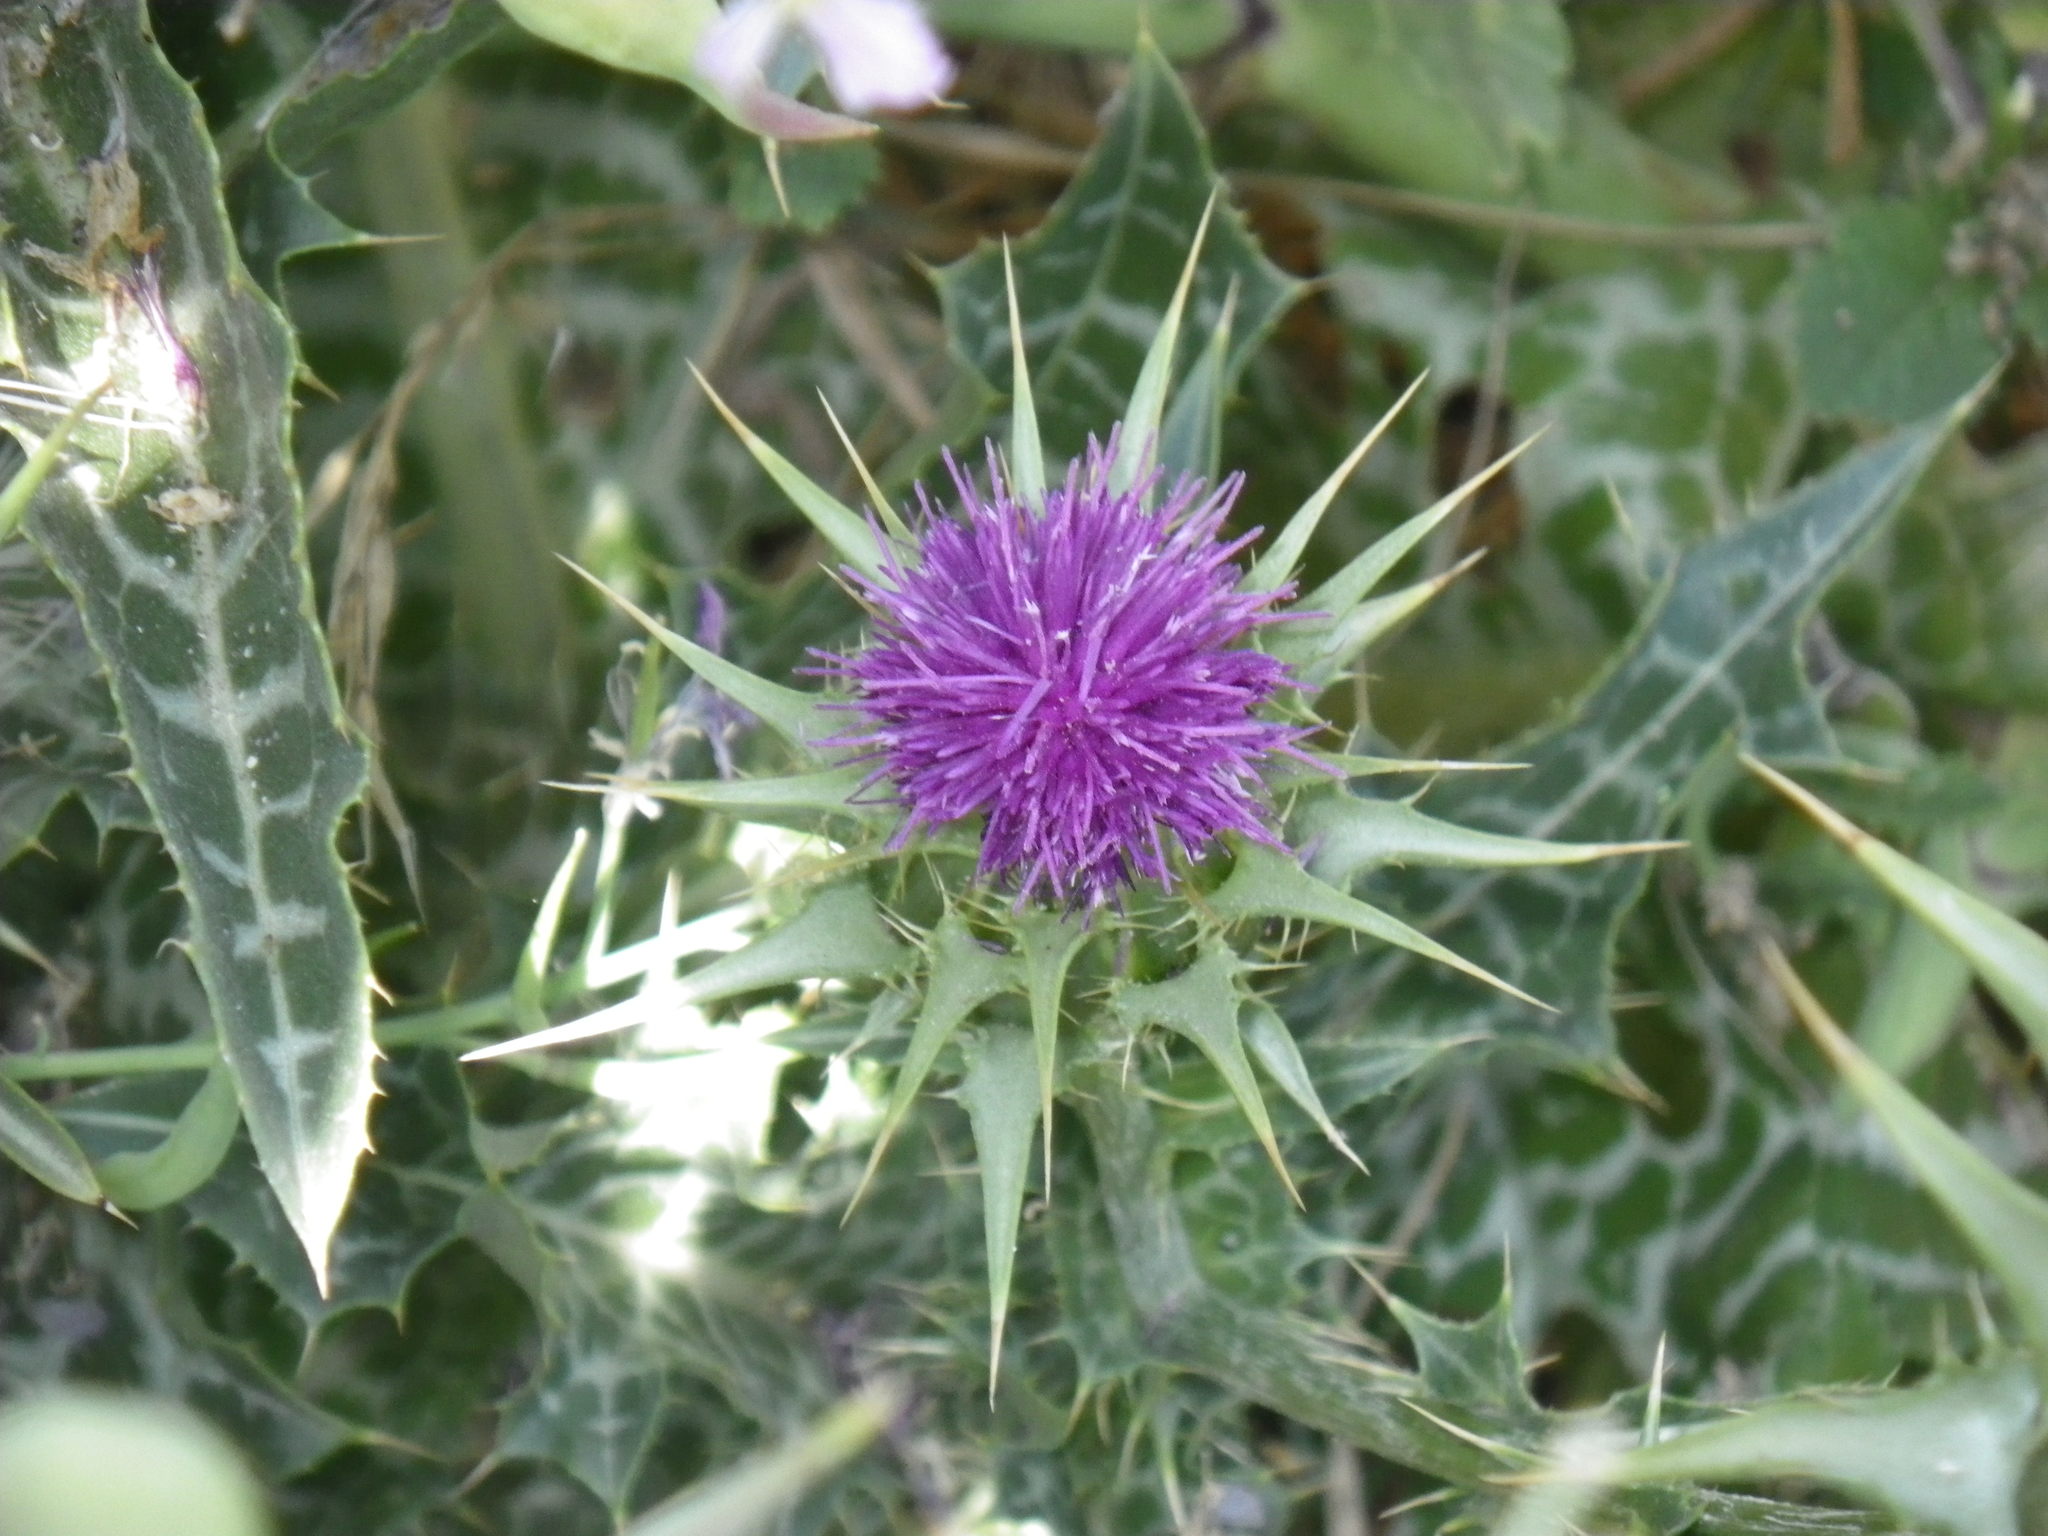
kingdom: Plantae
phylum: Tracheophyta
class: Magnoliopsida
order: Asterales
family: Asteraceae
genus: Silybum
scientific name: Silybum marianum
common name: Milk thistle
